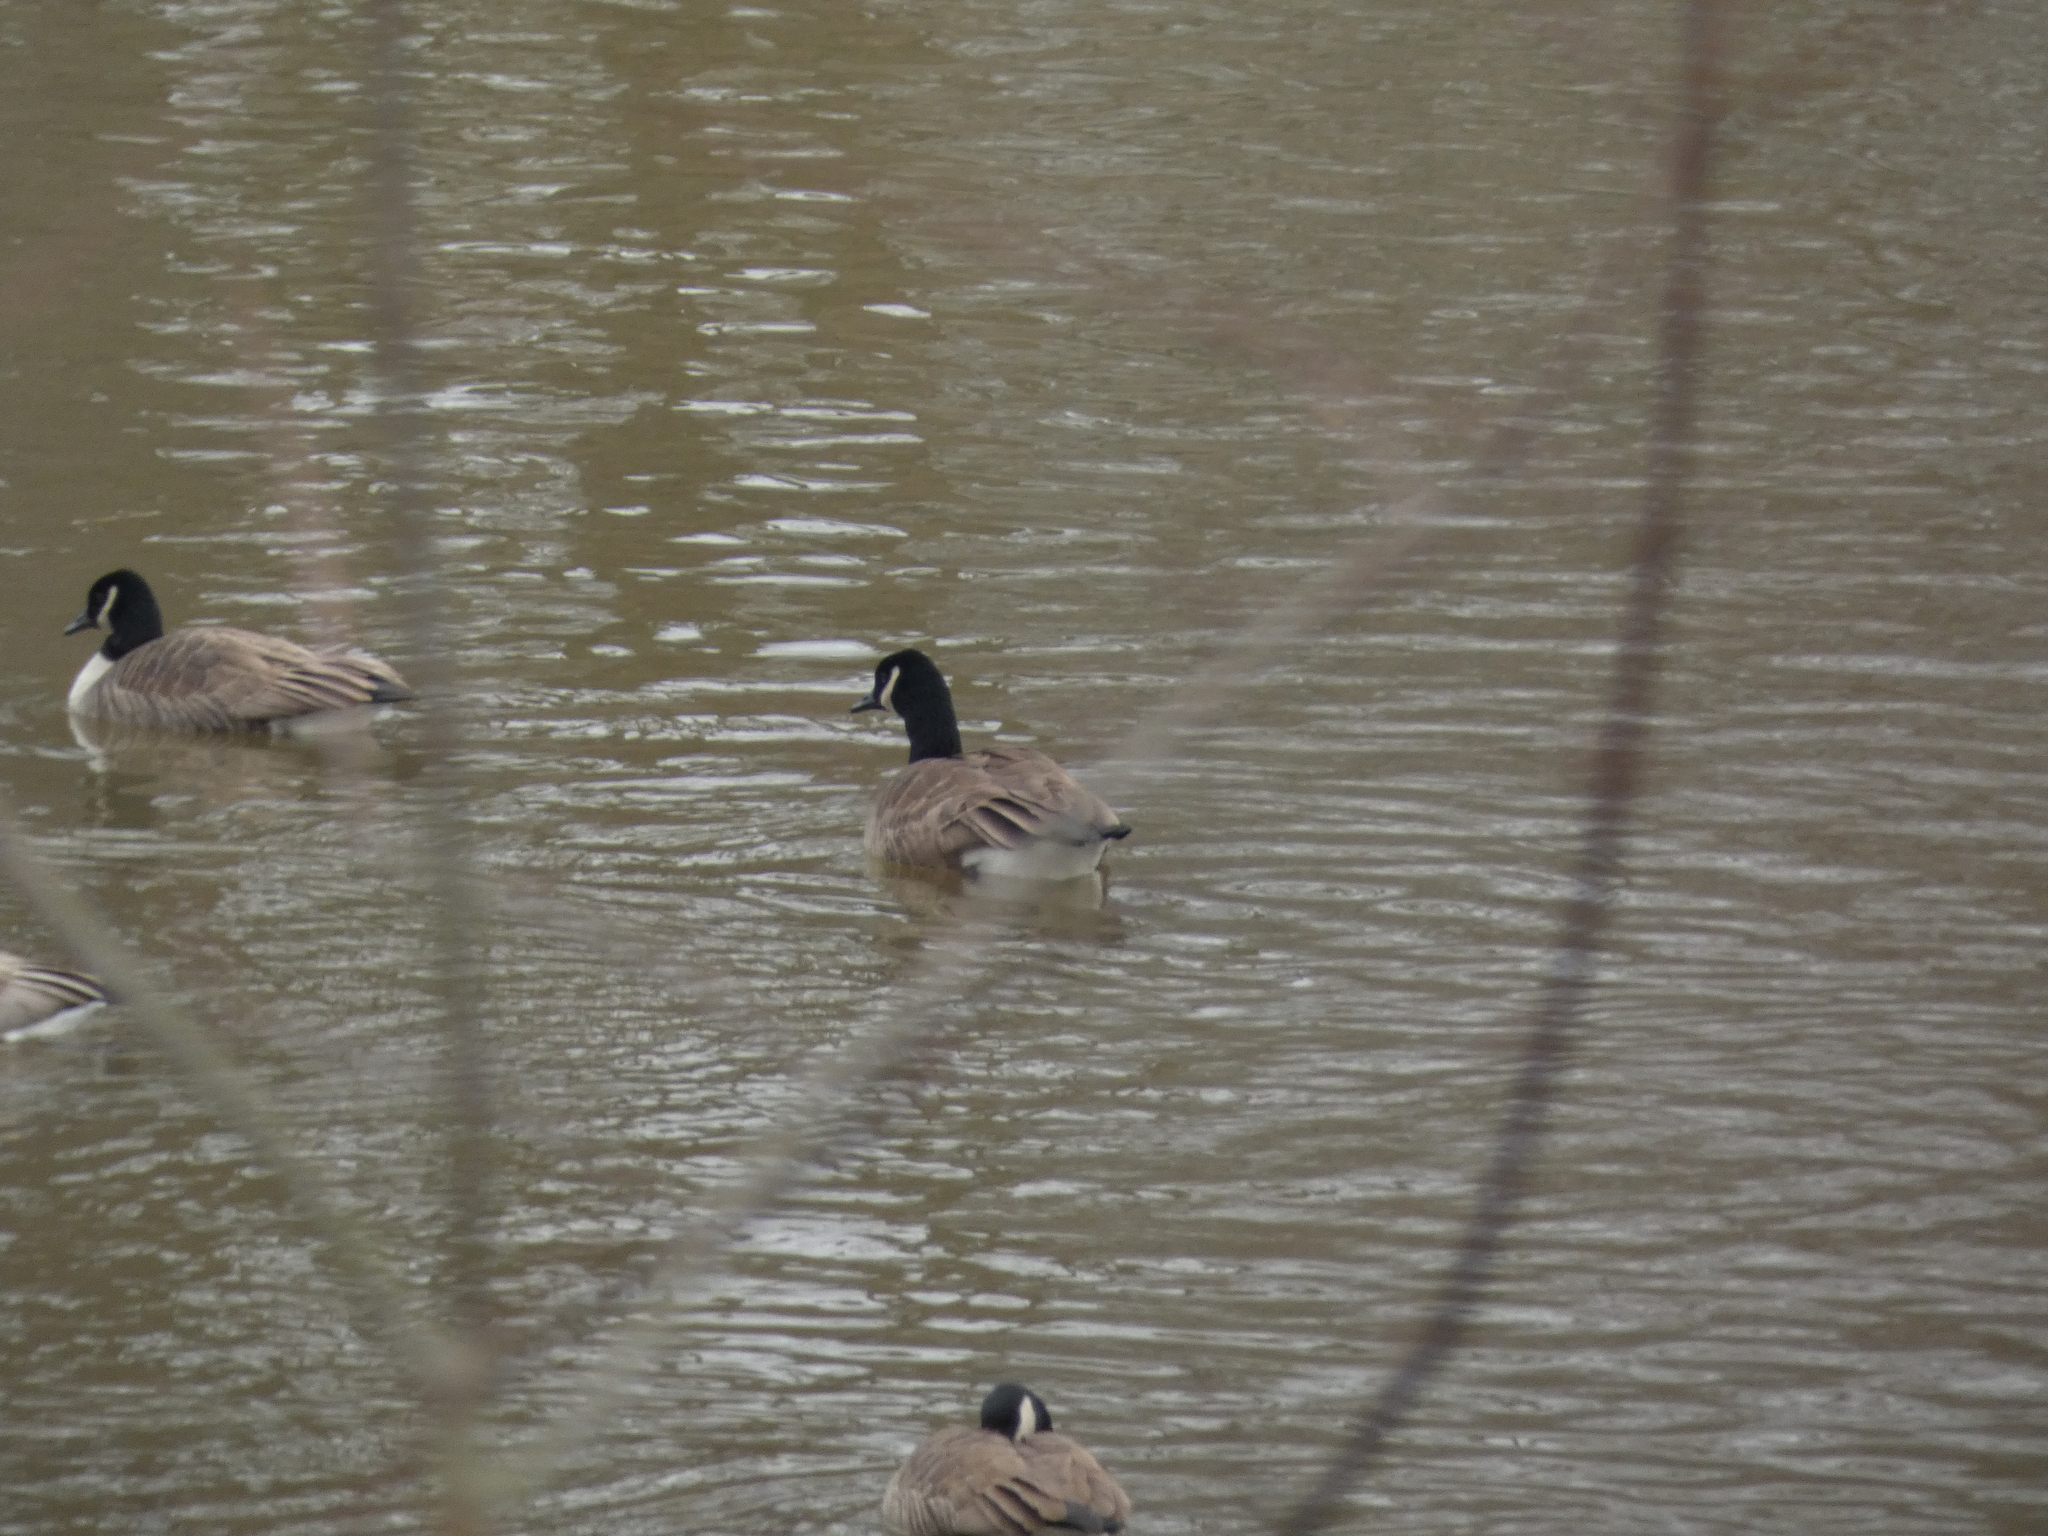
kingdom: Animalia
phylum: Chordata
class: Aves
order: Anseriformes
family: Anatidae
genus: Branta
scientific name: Branta canadensis
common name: Canada goose
